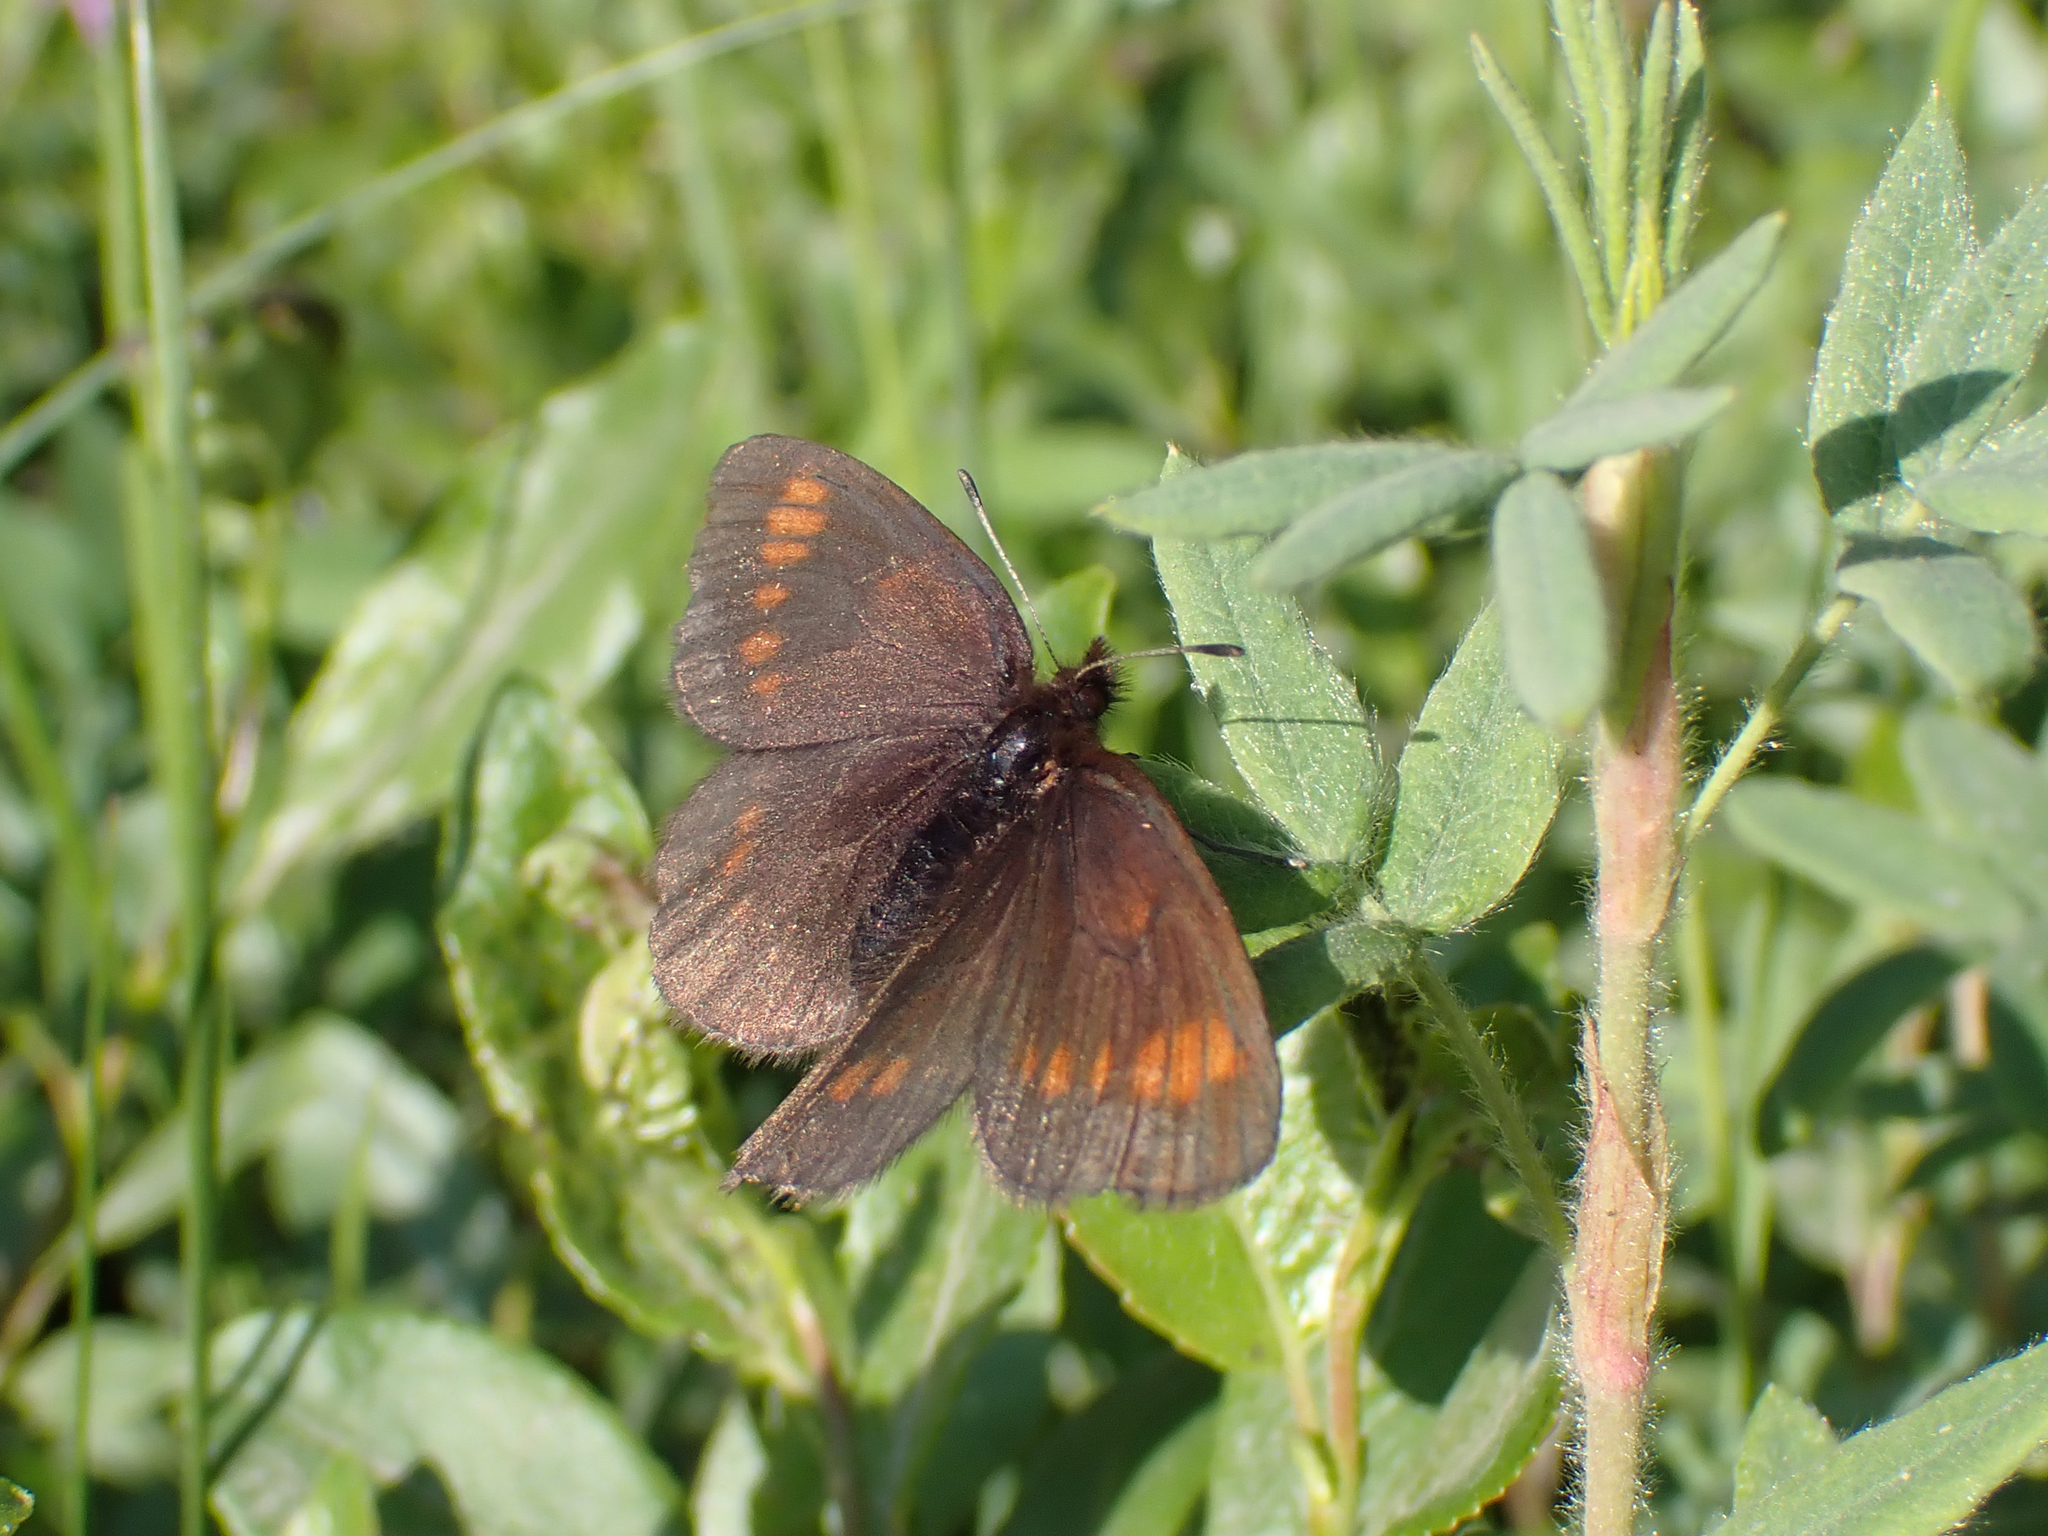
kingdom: Animalia
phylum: Arthropoda
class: Insecta
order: Lepidoptera
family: Nymphalidae
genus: Erebia
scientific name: Erebia pawloskii
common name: Theano alpine
